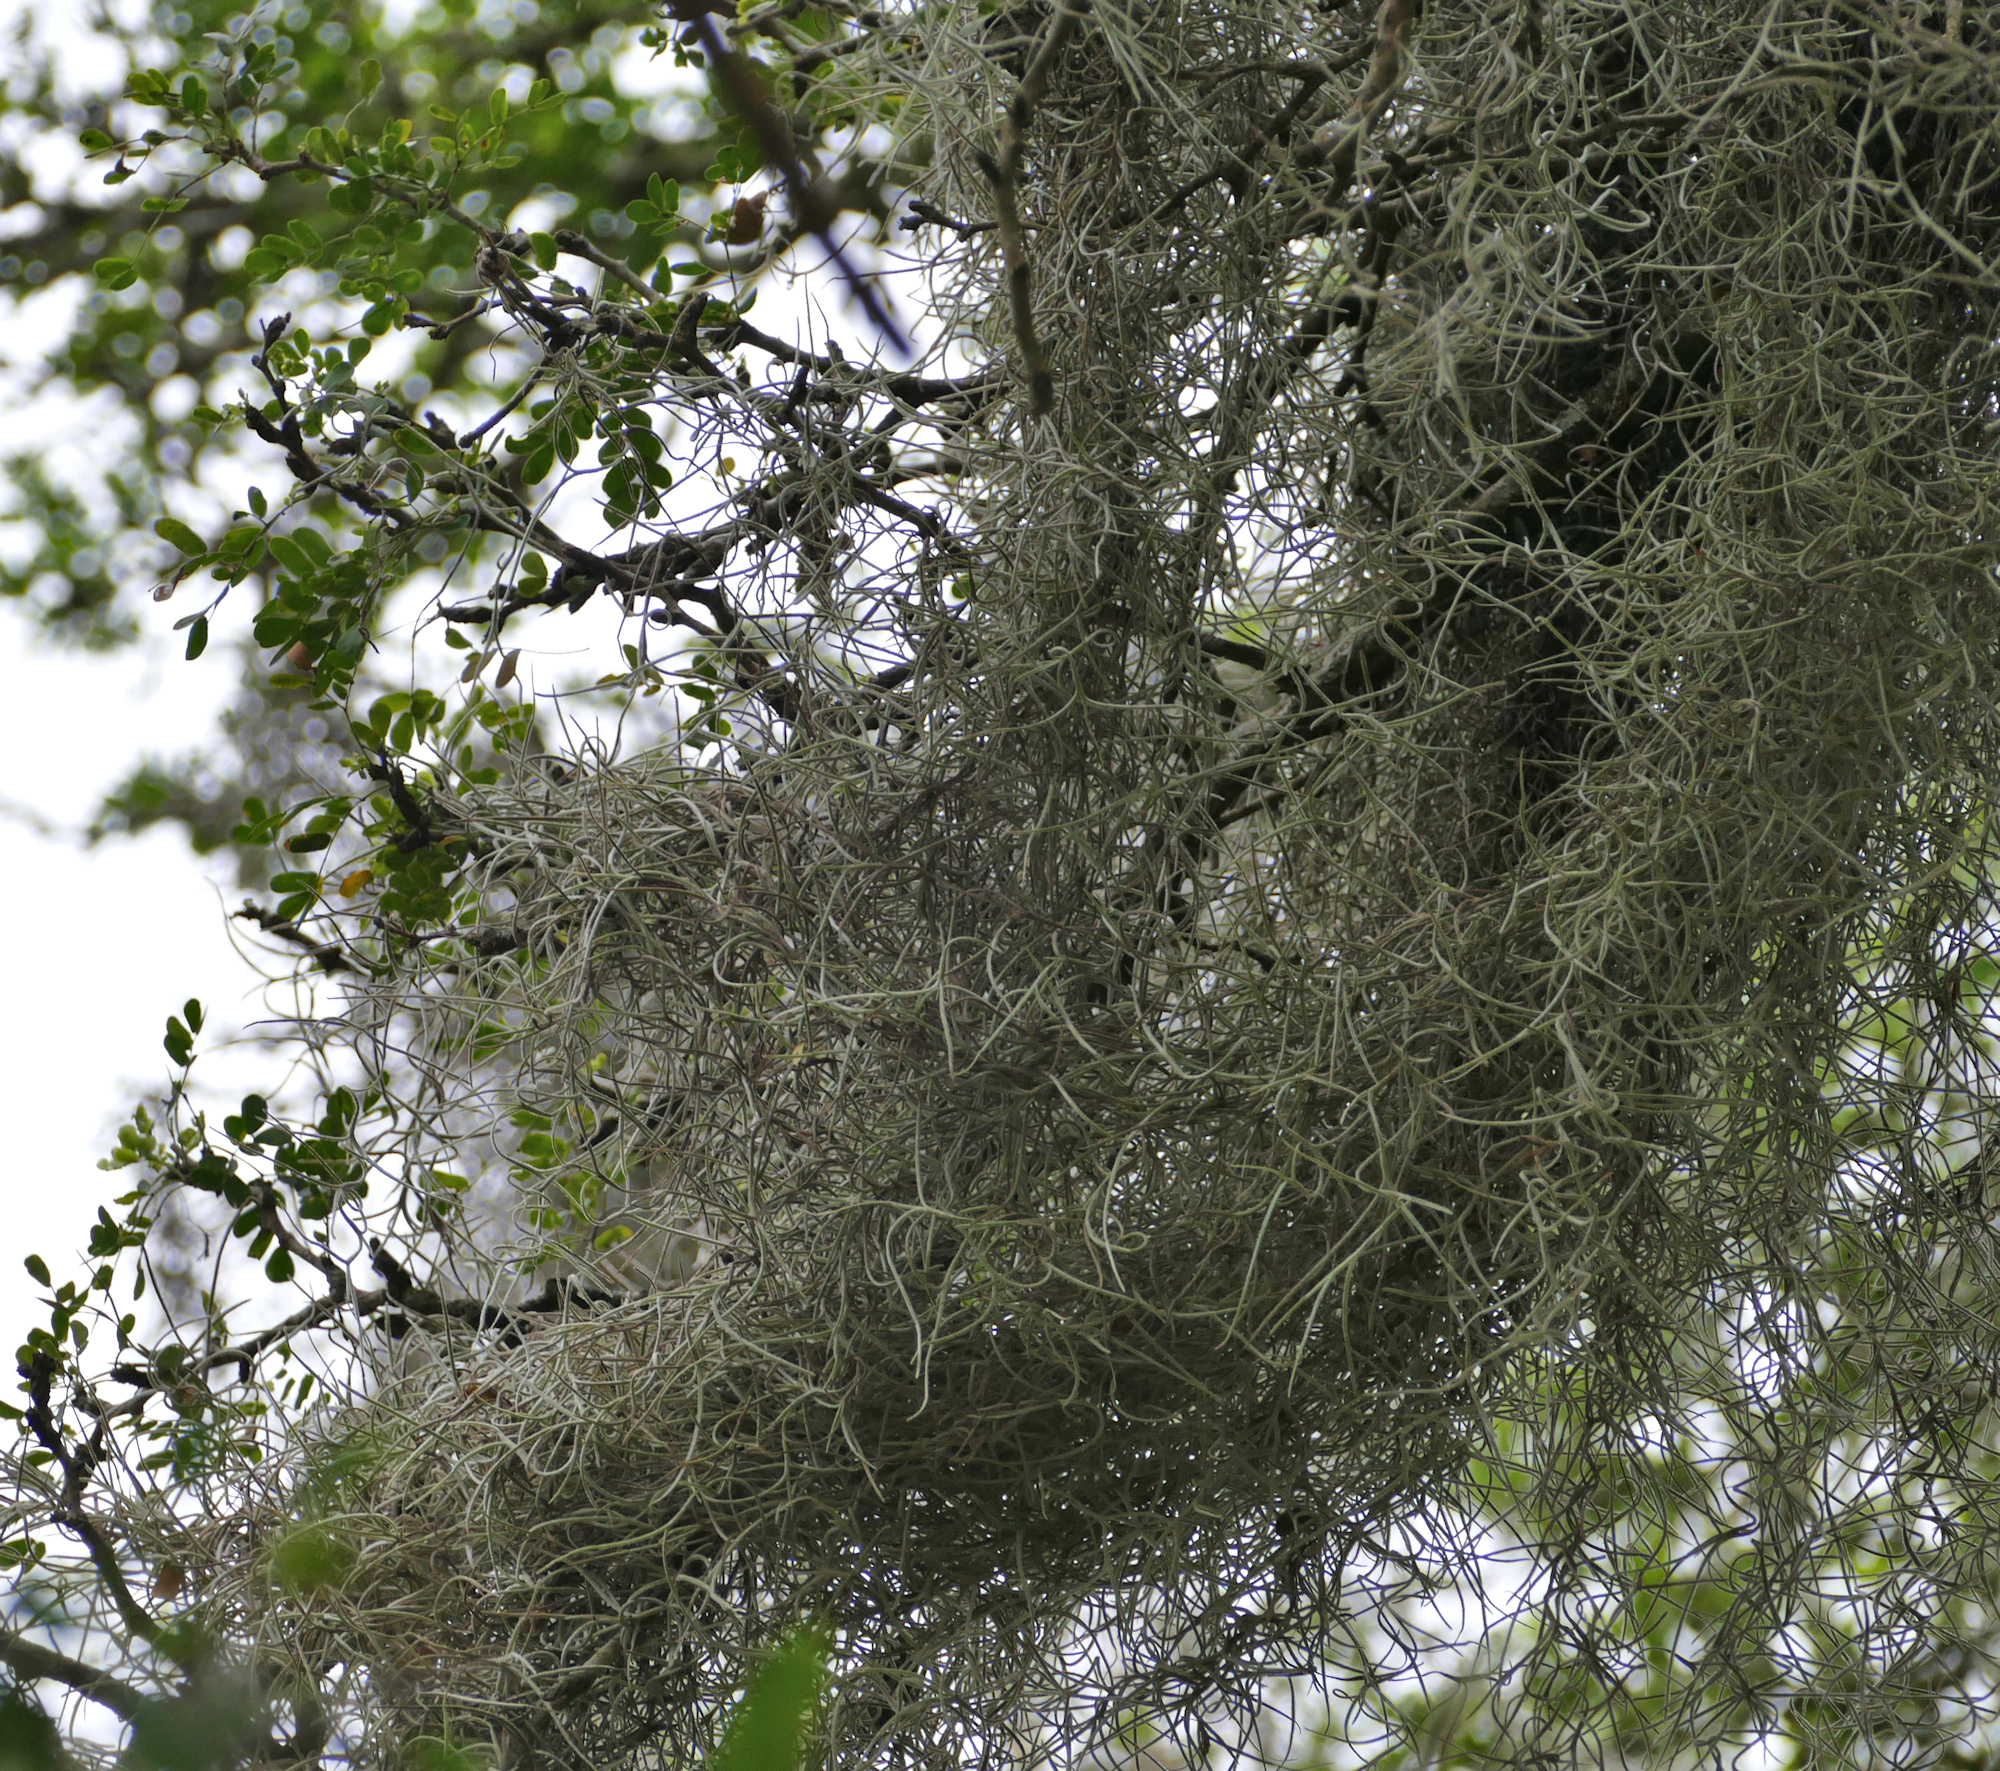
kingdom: Plantae
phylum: Tracheophyta
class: Liliopsida
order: Poales
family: Bromeliaceae
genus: Tillandsia
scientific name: Tillandsia usneoides
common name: Spanish moss
